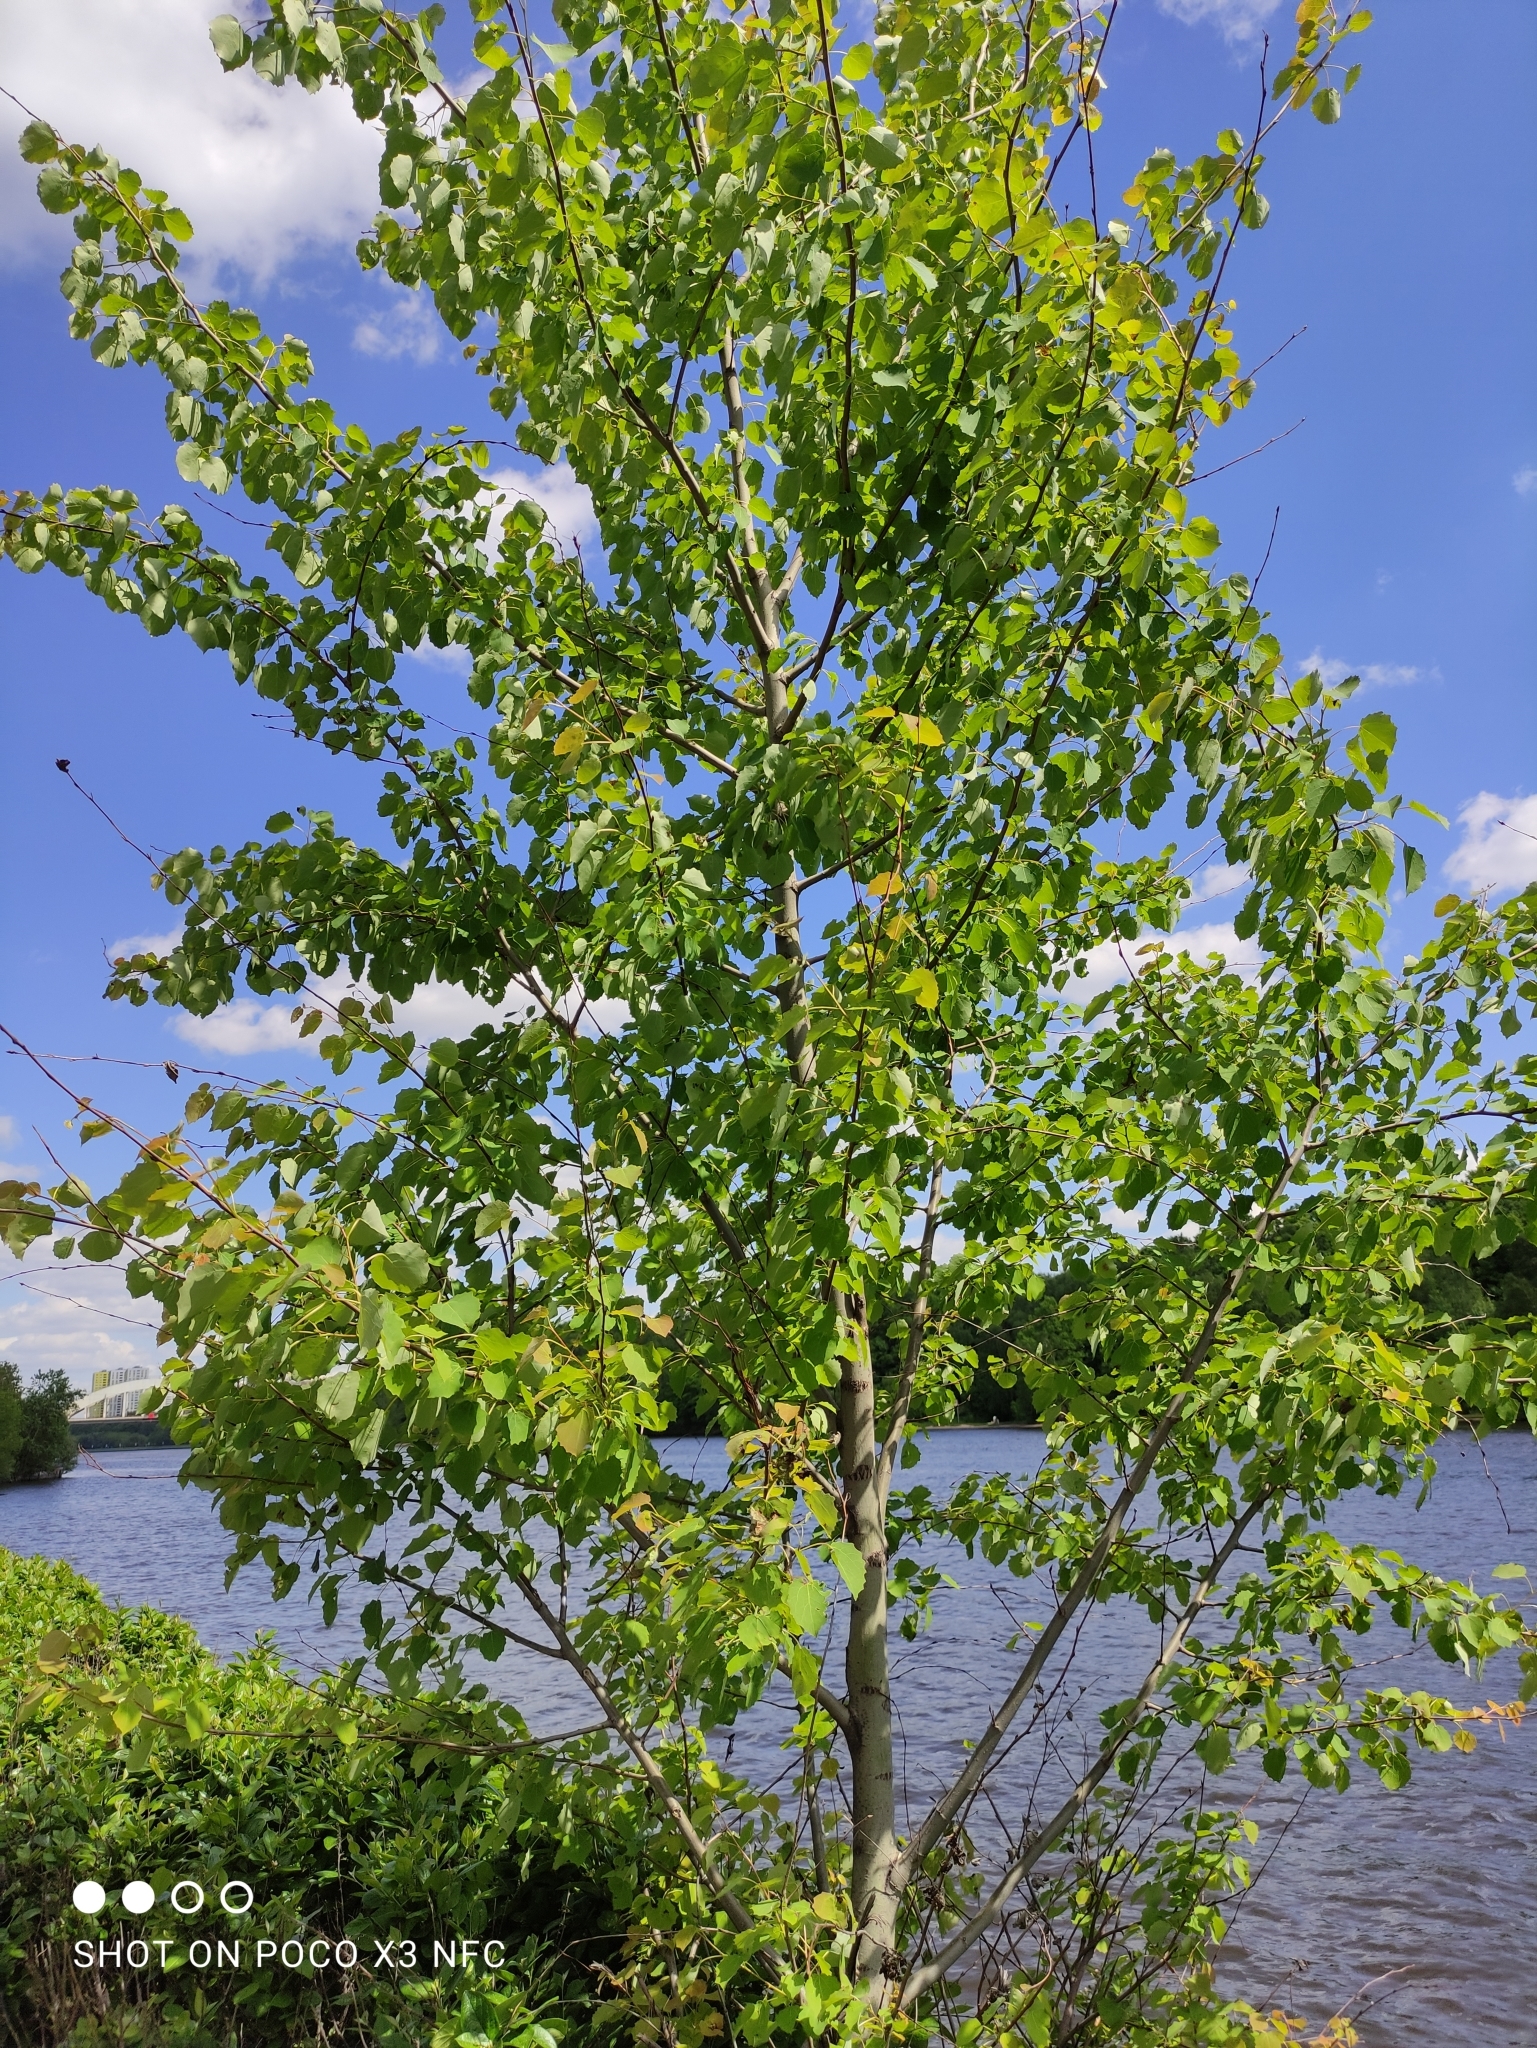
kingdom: Plantae
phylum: Tracheophyta
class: Magnoliopsida
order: Malpighiales
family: Salicaceae
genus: Populus
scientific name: Populus tremula
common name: European aspen
